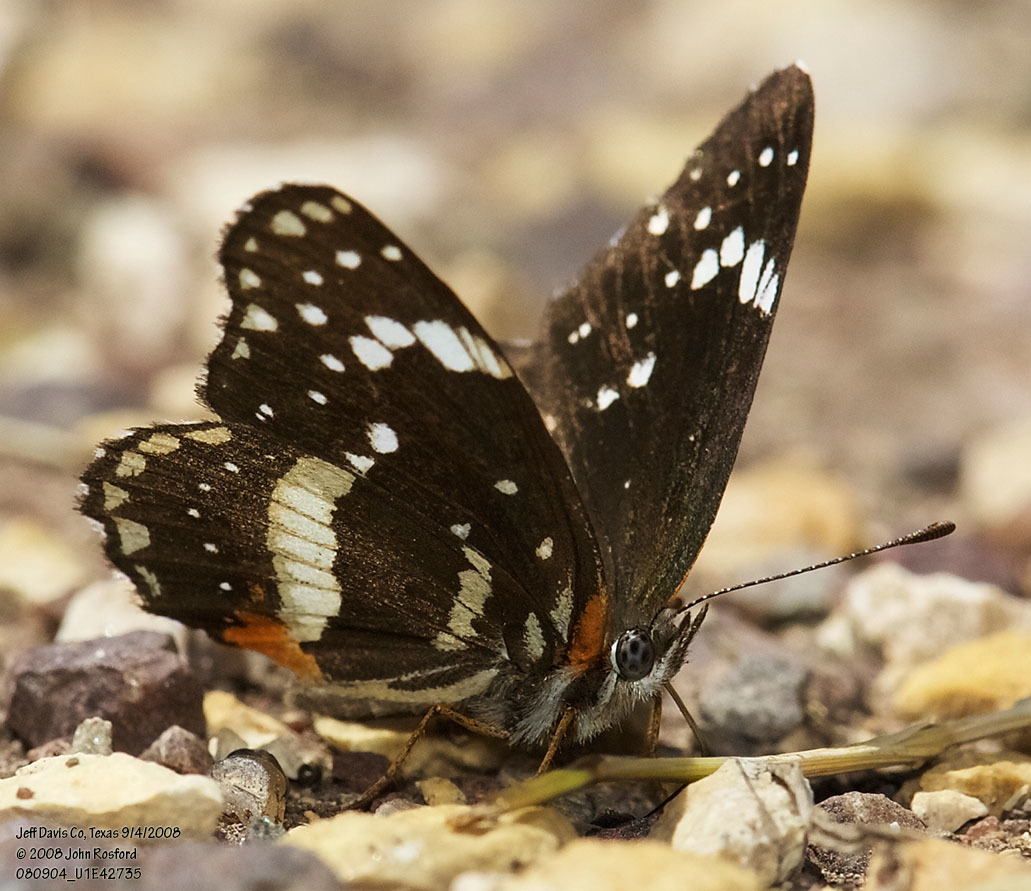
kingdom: Animalia
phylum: Arthropoda
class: Insecta
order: Lepidoptera
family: Nymphalidae
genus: Chlosyne
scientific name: Chlosyne lacinia
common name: Bordered patch
